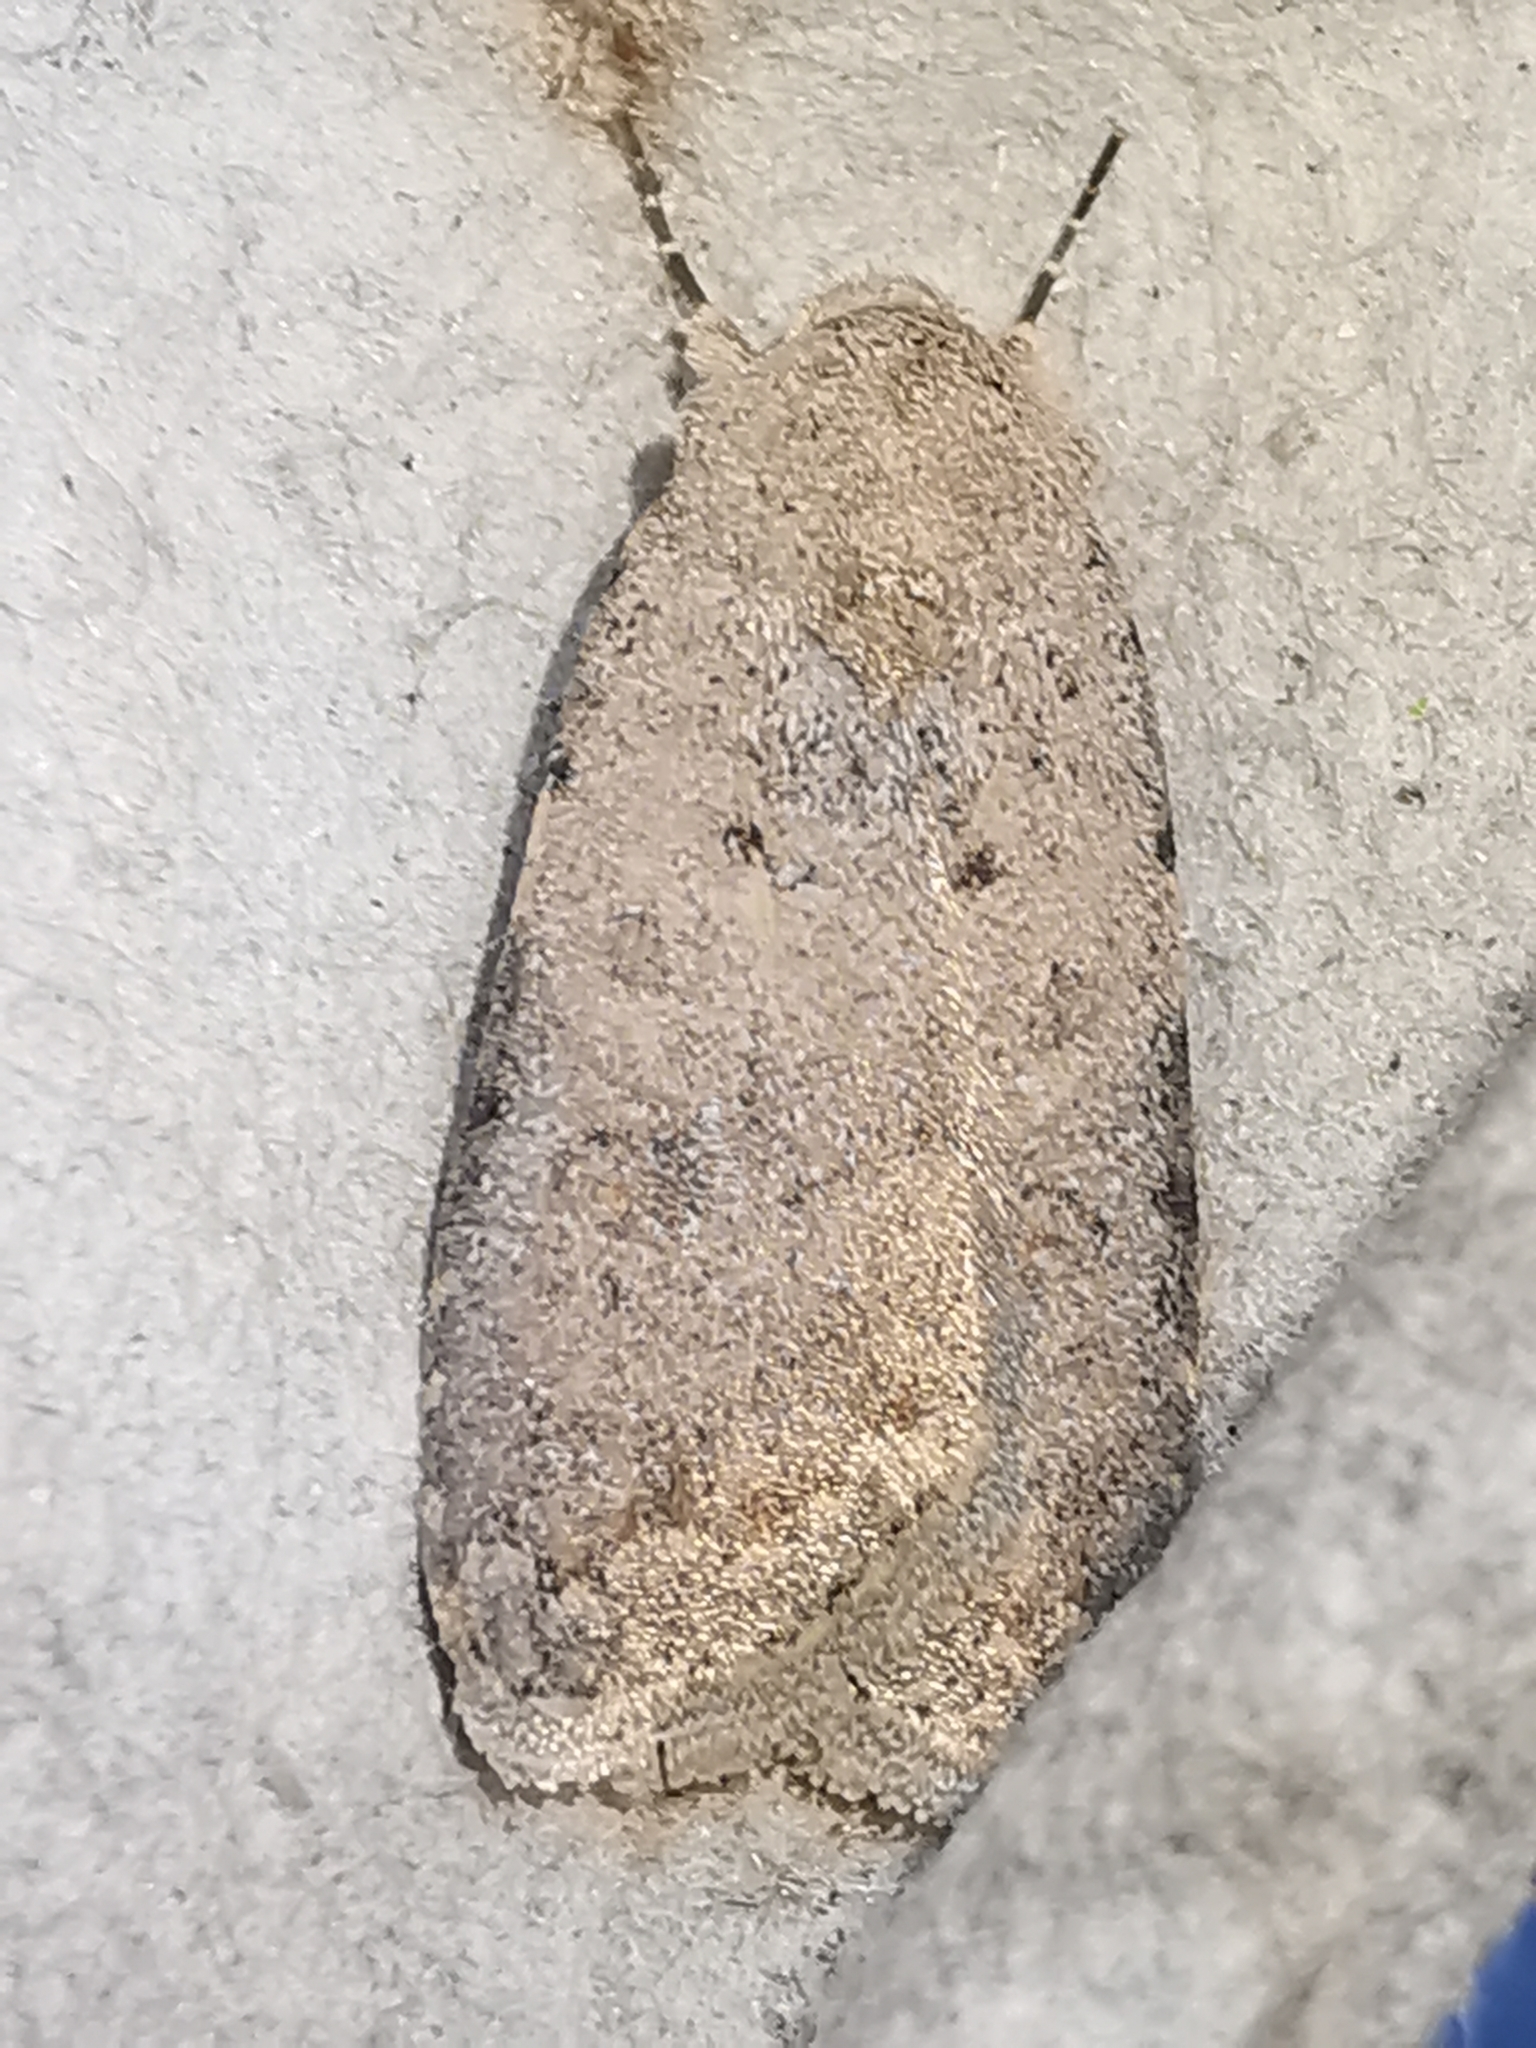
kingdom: Animalia
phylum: Arthropoda
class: Insecta
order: Lepidoptera
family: Noctuidae
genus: Caradrina
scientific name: Caradrina clavipalpis
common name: Pale mottled willow
